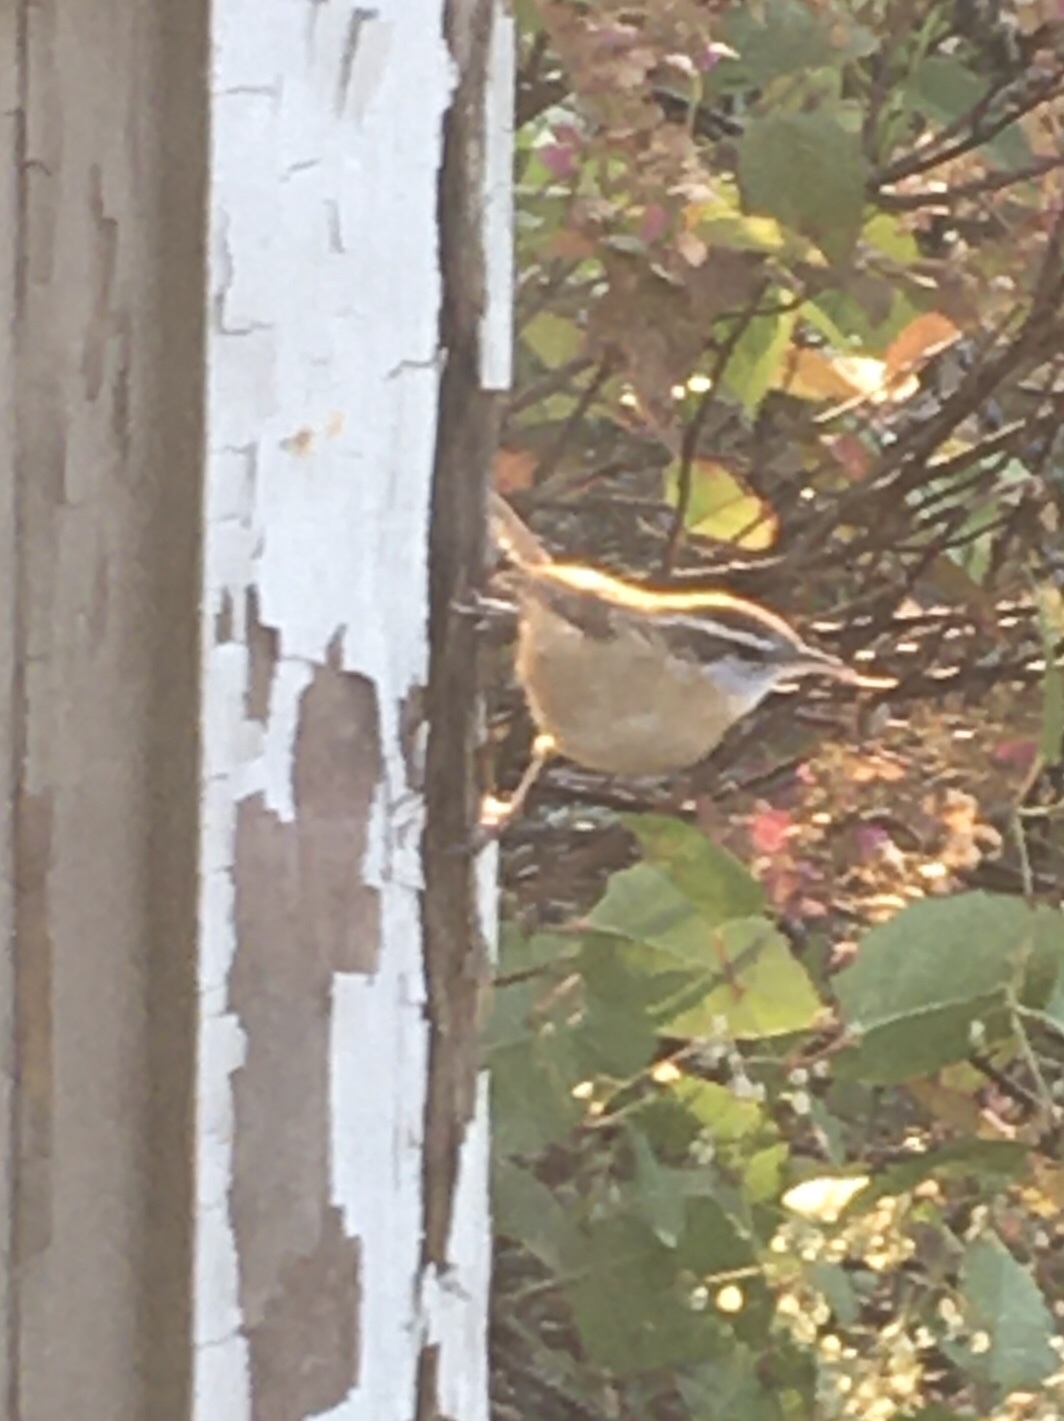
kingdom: Animalia
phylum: Chordata
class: Aves
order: Passeriformes
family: Troglodytidae
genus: Thryothorus
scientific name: Thryothorus ludovicianus
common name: Carolina wren
